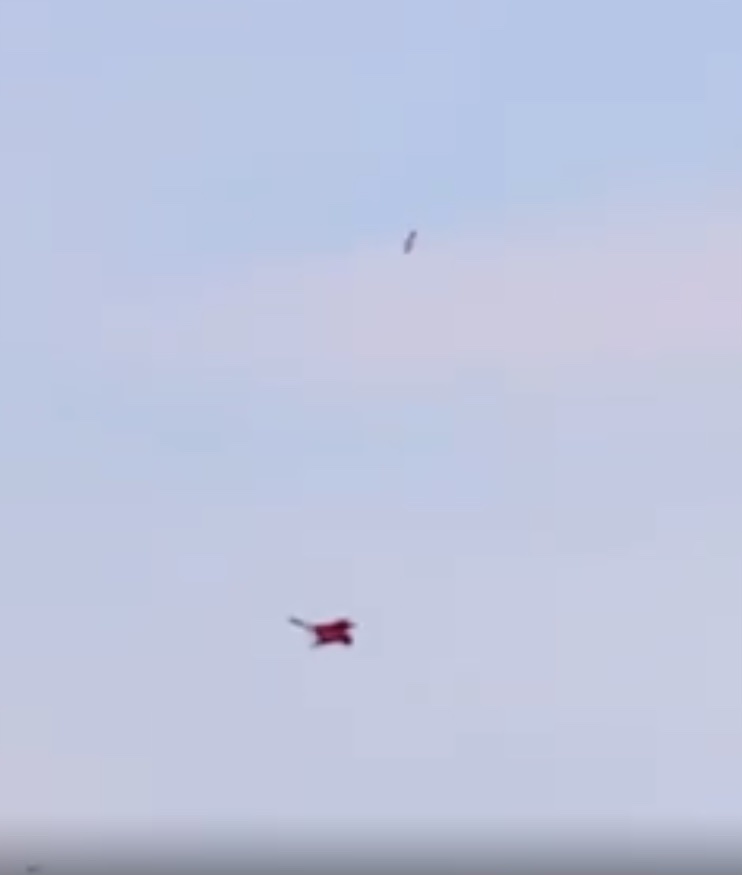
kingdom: Animalia
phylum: Chordata
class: Aves
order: Falconiformes
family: Falconidae
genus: Falco
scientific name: Falco tinnunculus
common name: Common kestrel
